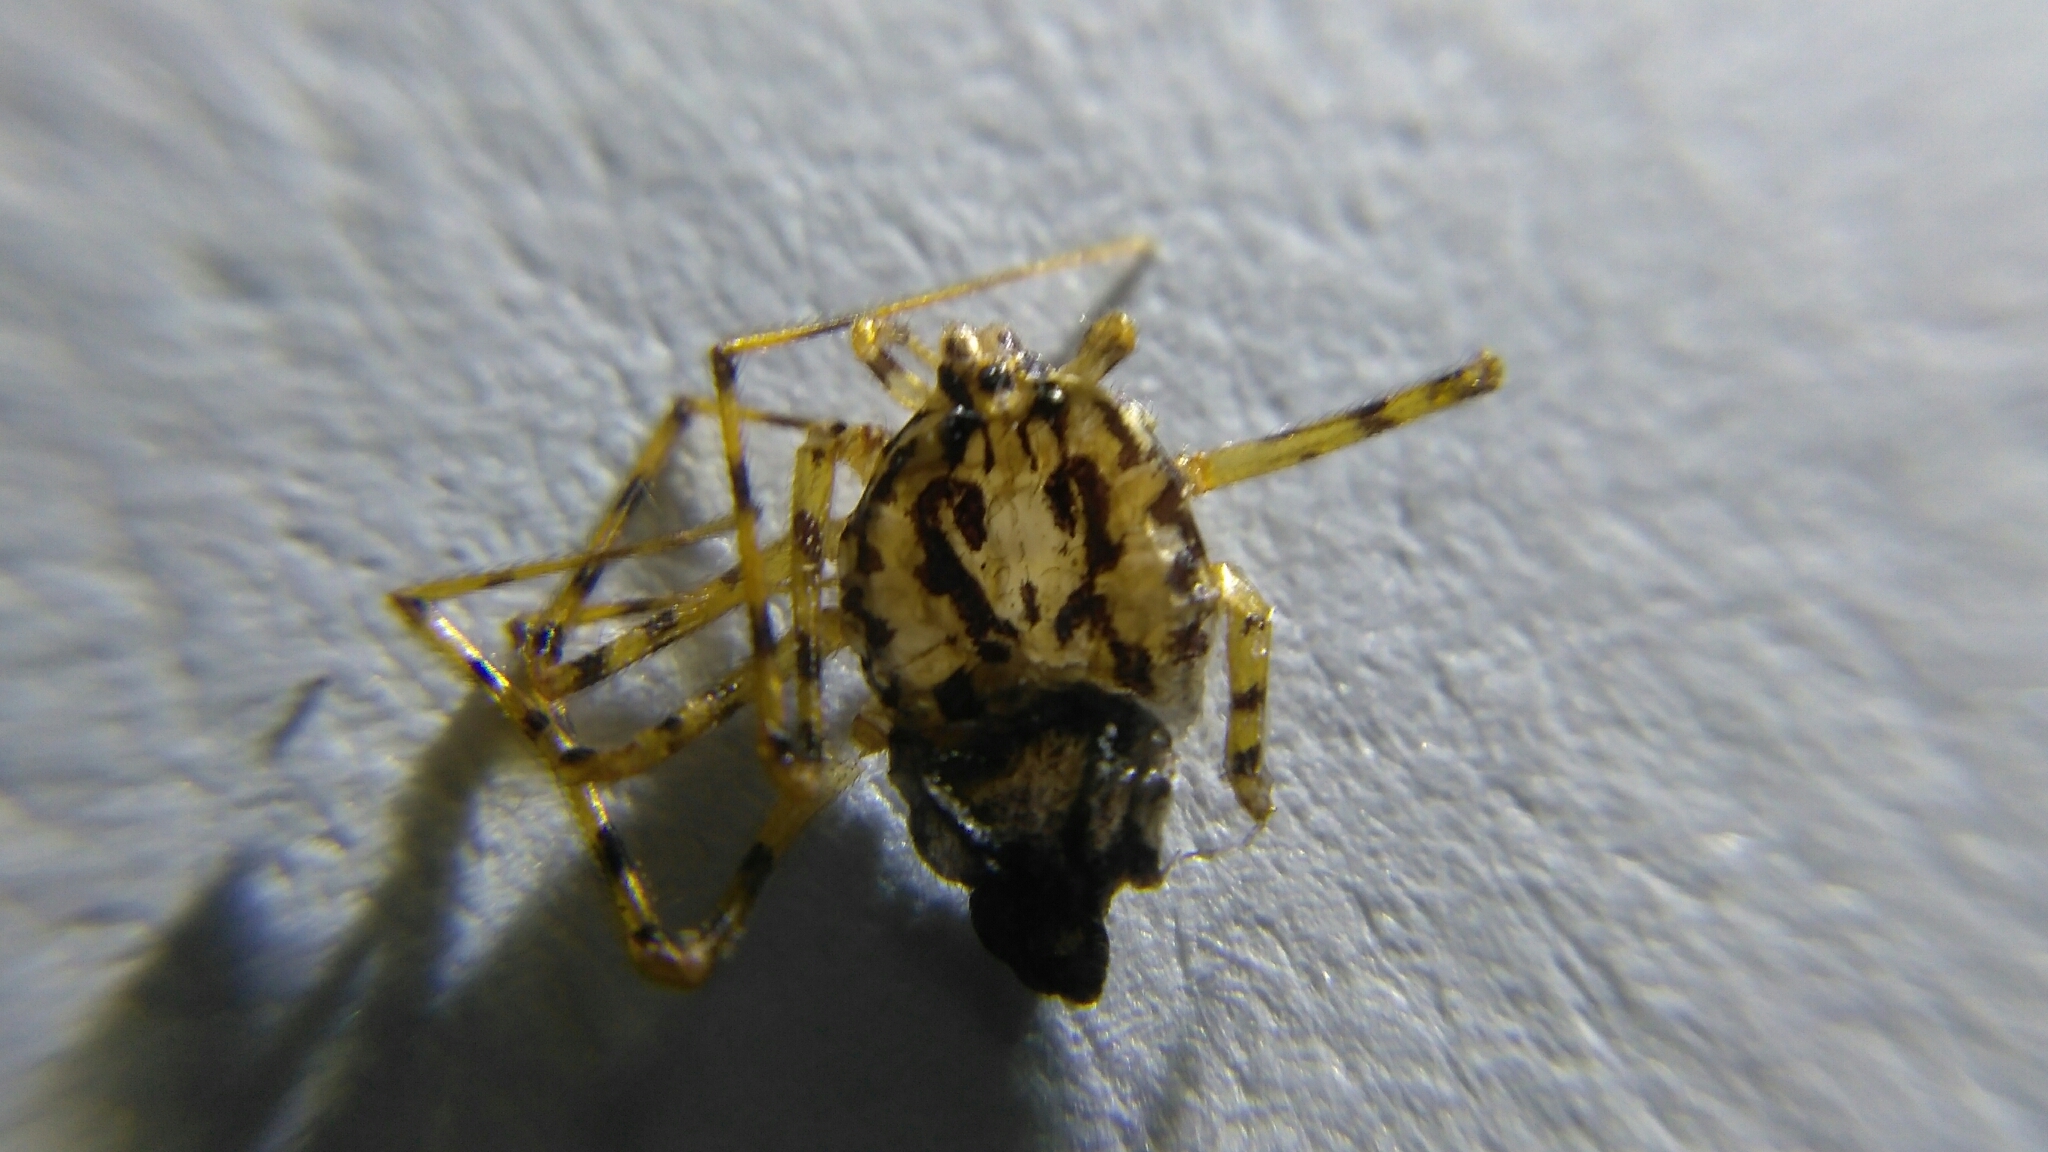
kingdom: Animalia
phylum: Arthropoda
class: Arachnida
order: Araneae
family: Scytodidae
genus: Scytodes
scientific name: Scytodes thoracica
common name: Spitting spider
